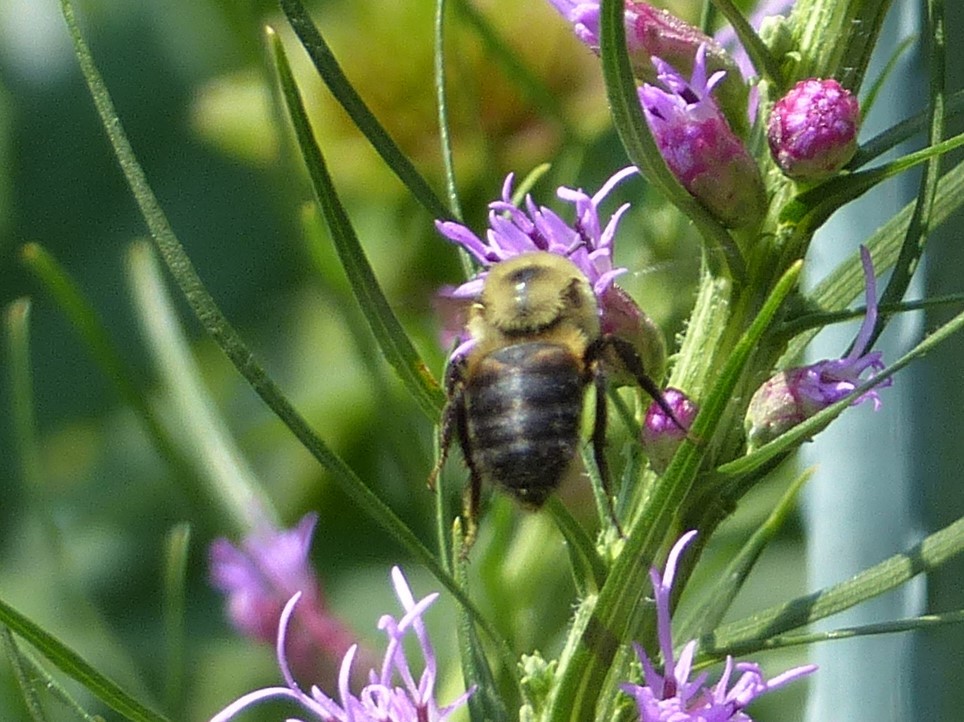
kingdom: Animalia
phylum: Arthropoda
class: Insecta
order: Hymenoptera
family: Apidae
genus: Bombus
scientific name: Bombus griseocollis
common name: Brown-belted bumble bee
